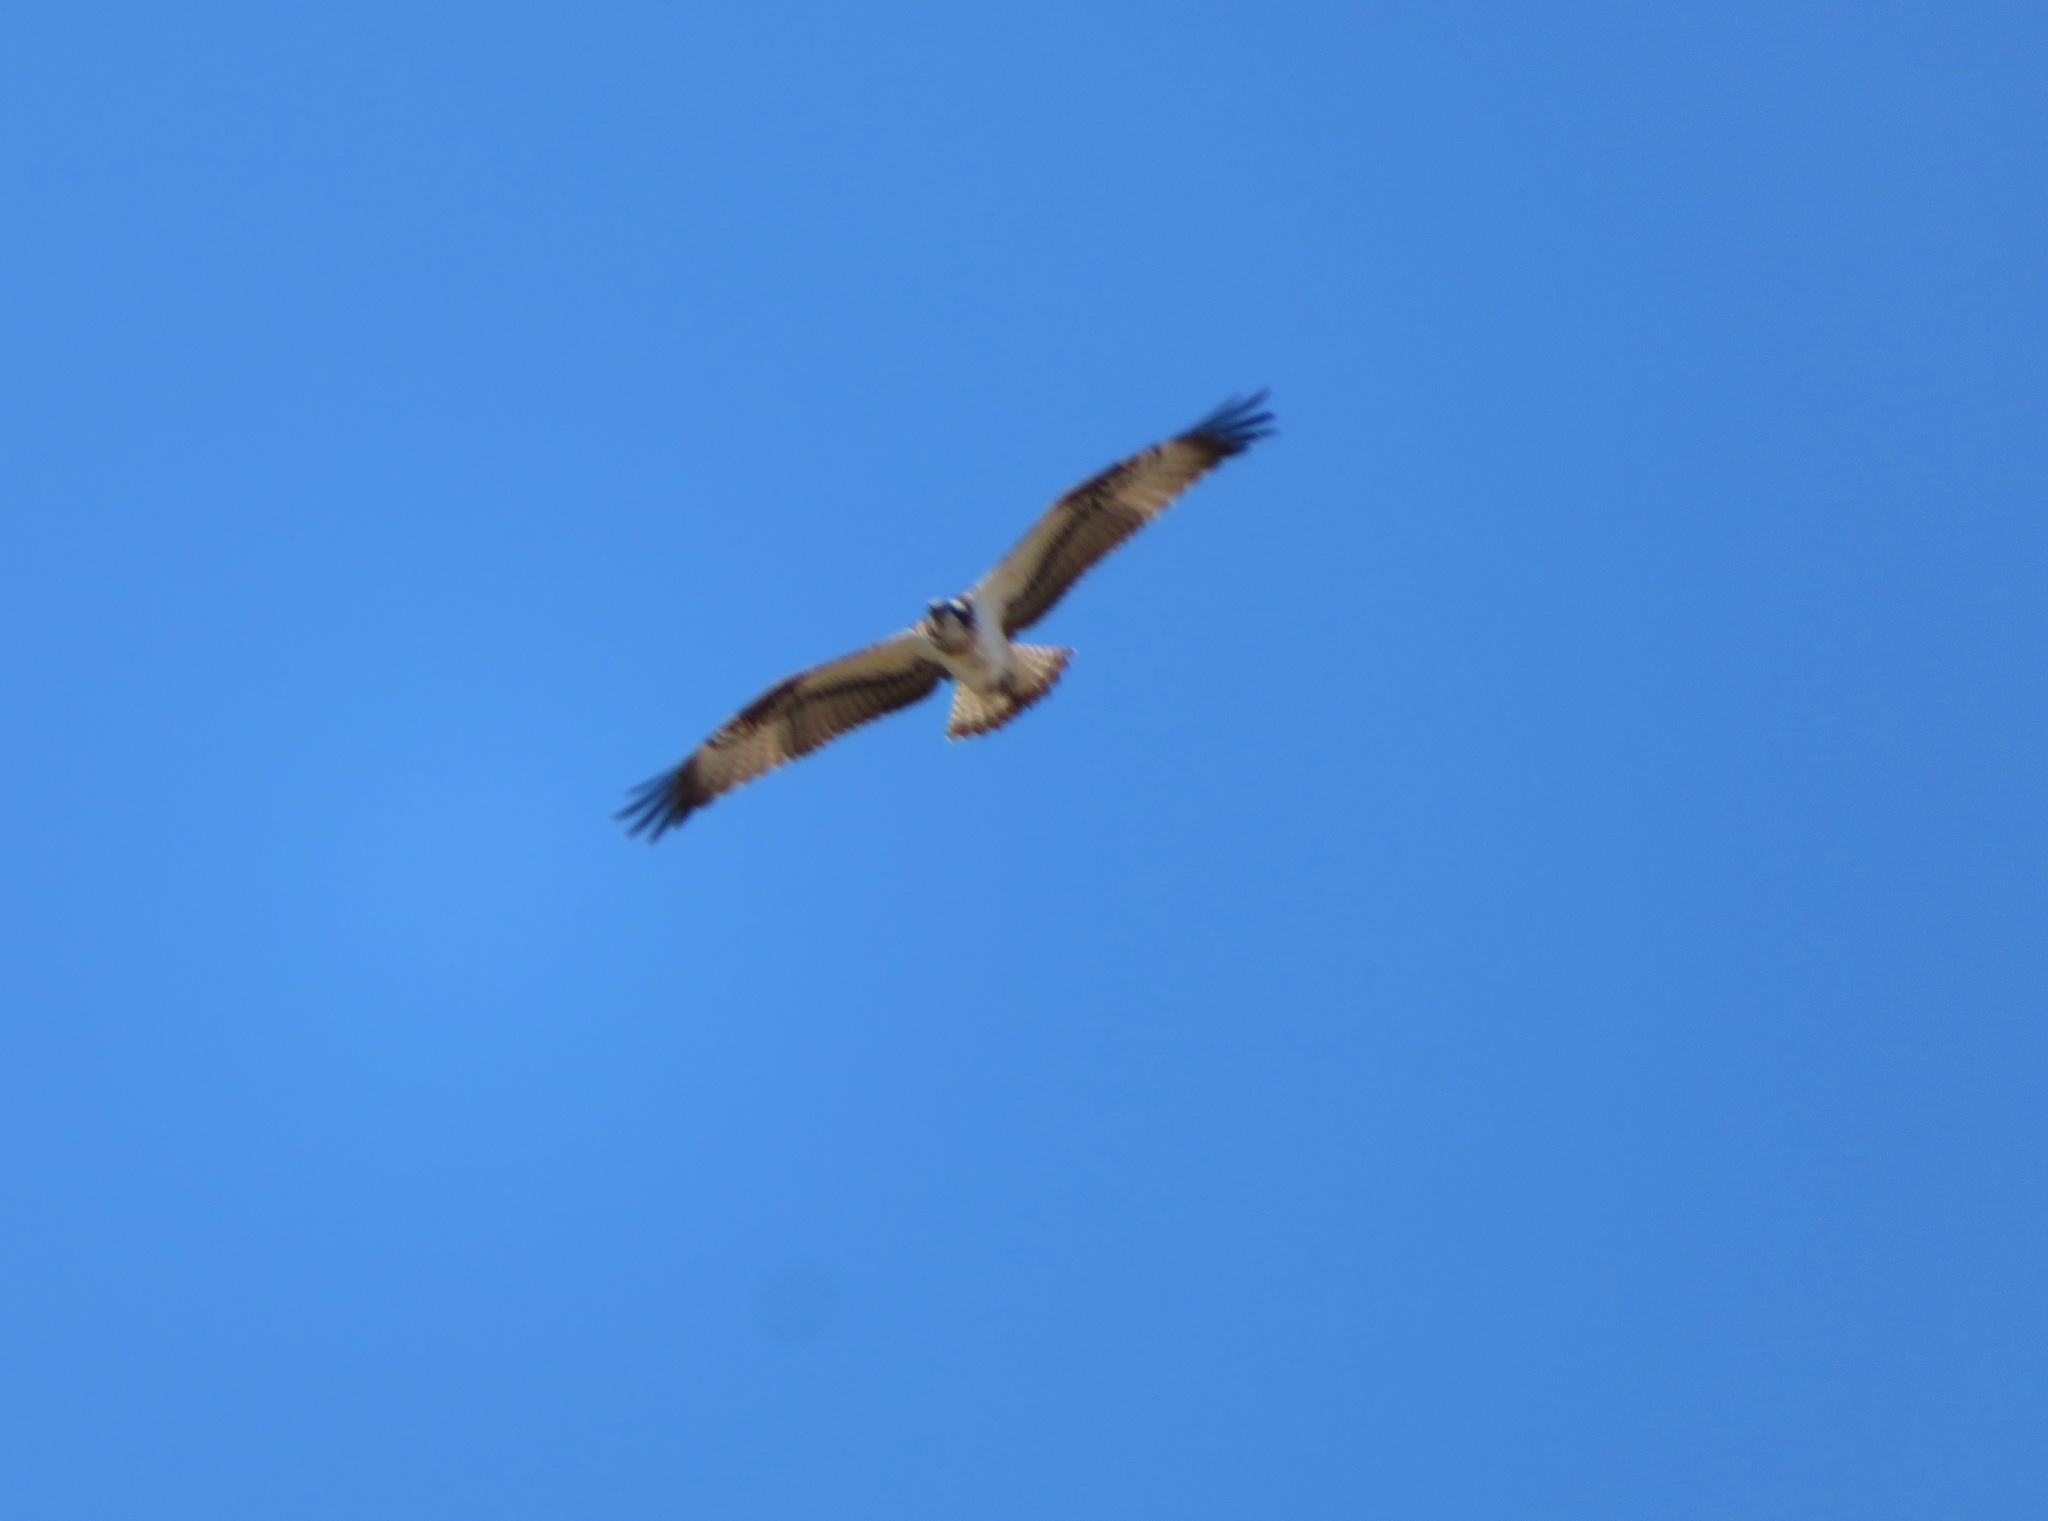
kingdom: Animalia
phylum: Chordata
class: Aves
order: Accipitriformes
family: Pandionidae
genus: Pandion
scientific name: Pandion haliaetus
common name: Osprey
